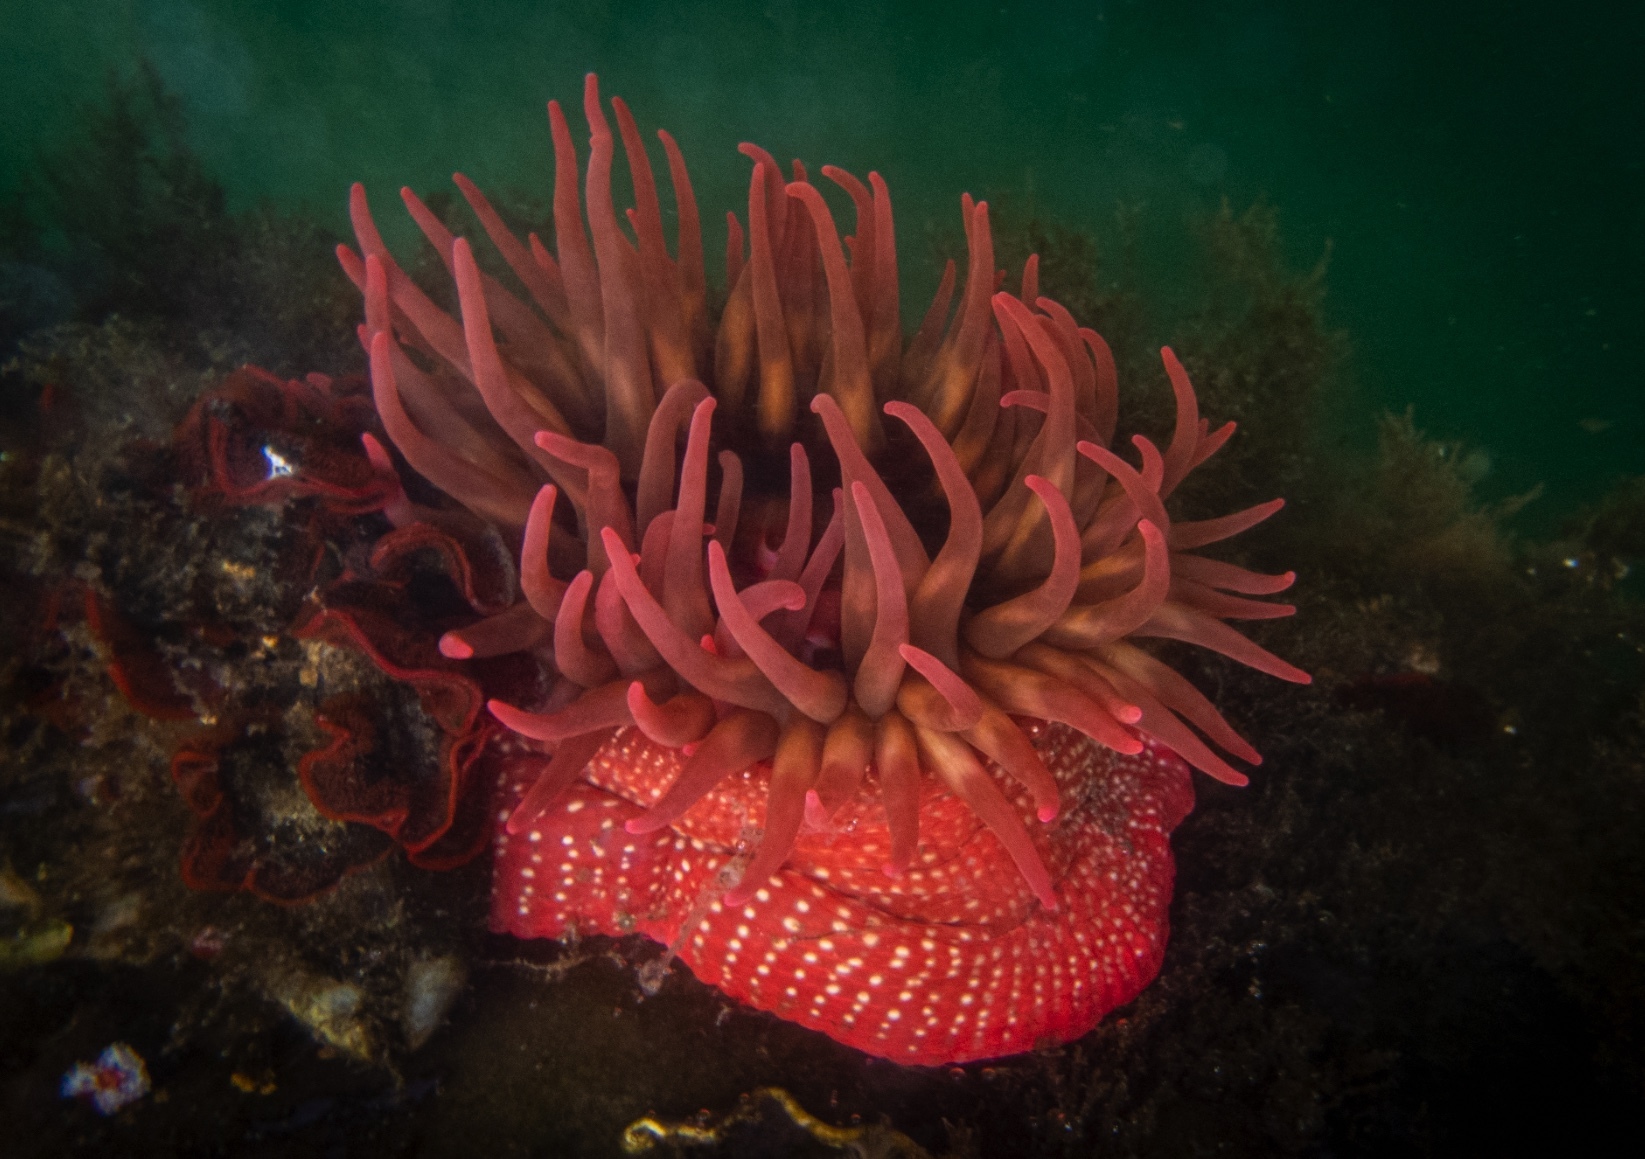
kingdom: Animalia
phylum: Cnidaria
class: Anthozoa
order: Actiniaria
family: Actiniidae
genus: Cribrinopsis
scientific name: Cribrinopsis albopunctata
